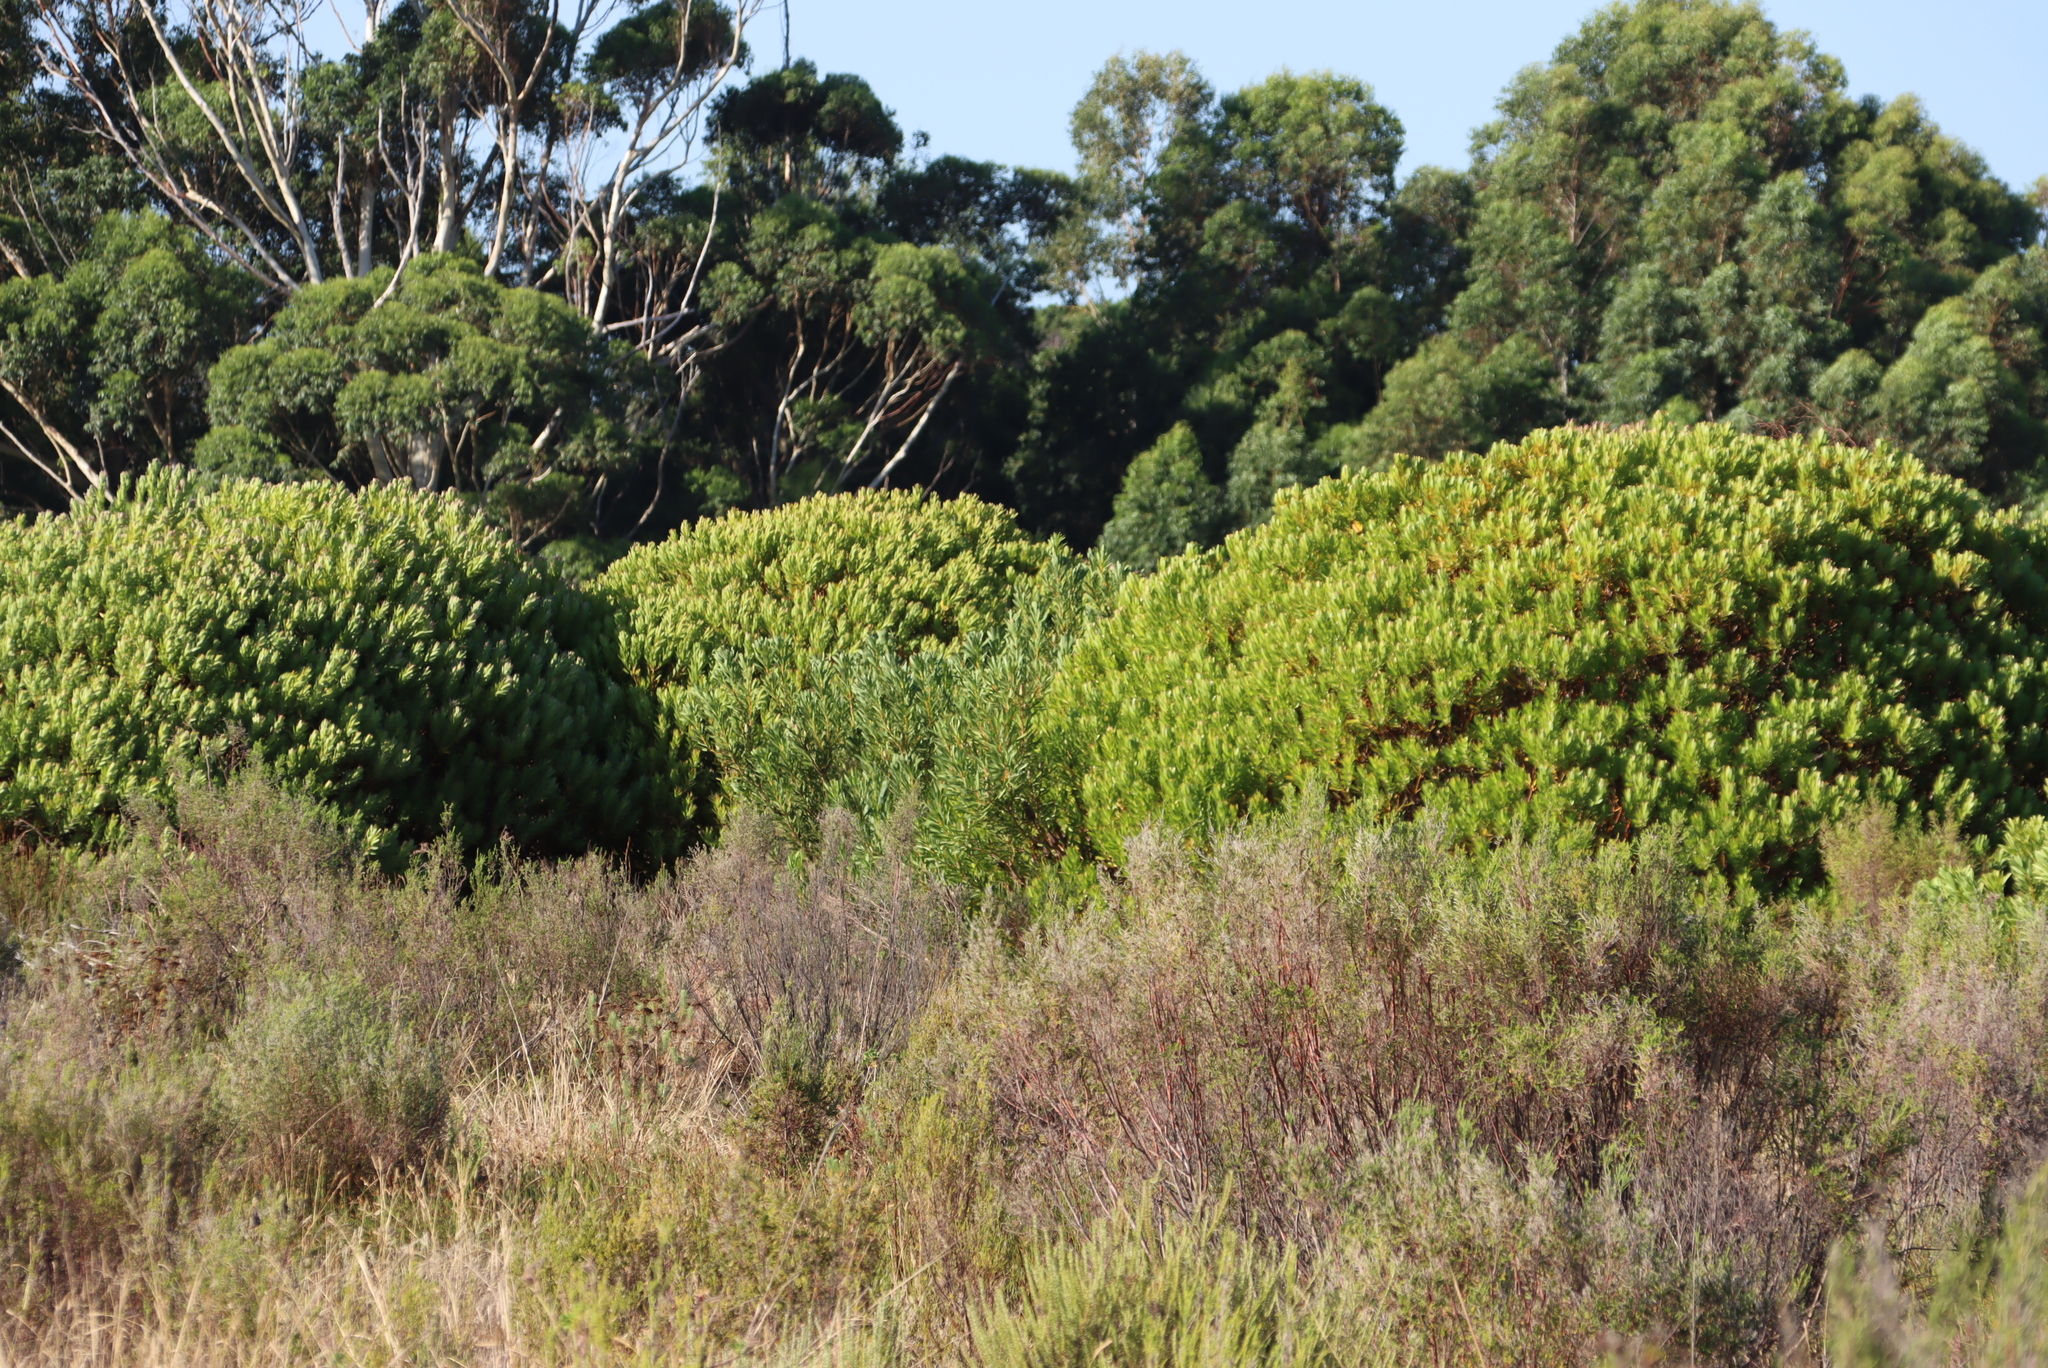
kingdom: Plantae
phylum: Tracheophyta
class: Magnoliopsida
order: Proteales
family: Proteaceae
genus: Leucadendron
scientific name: Leucadendron laureolum
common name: Golden sunshinebush
